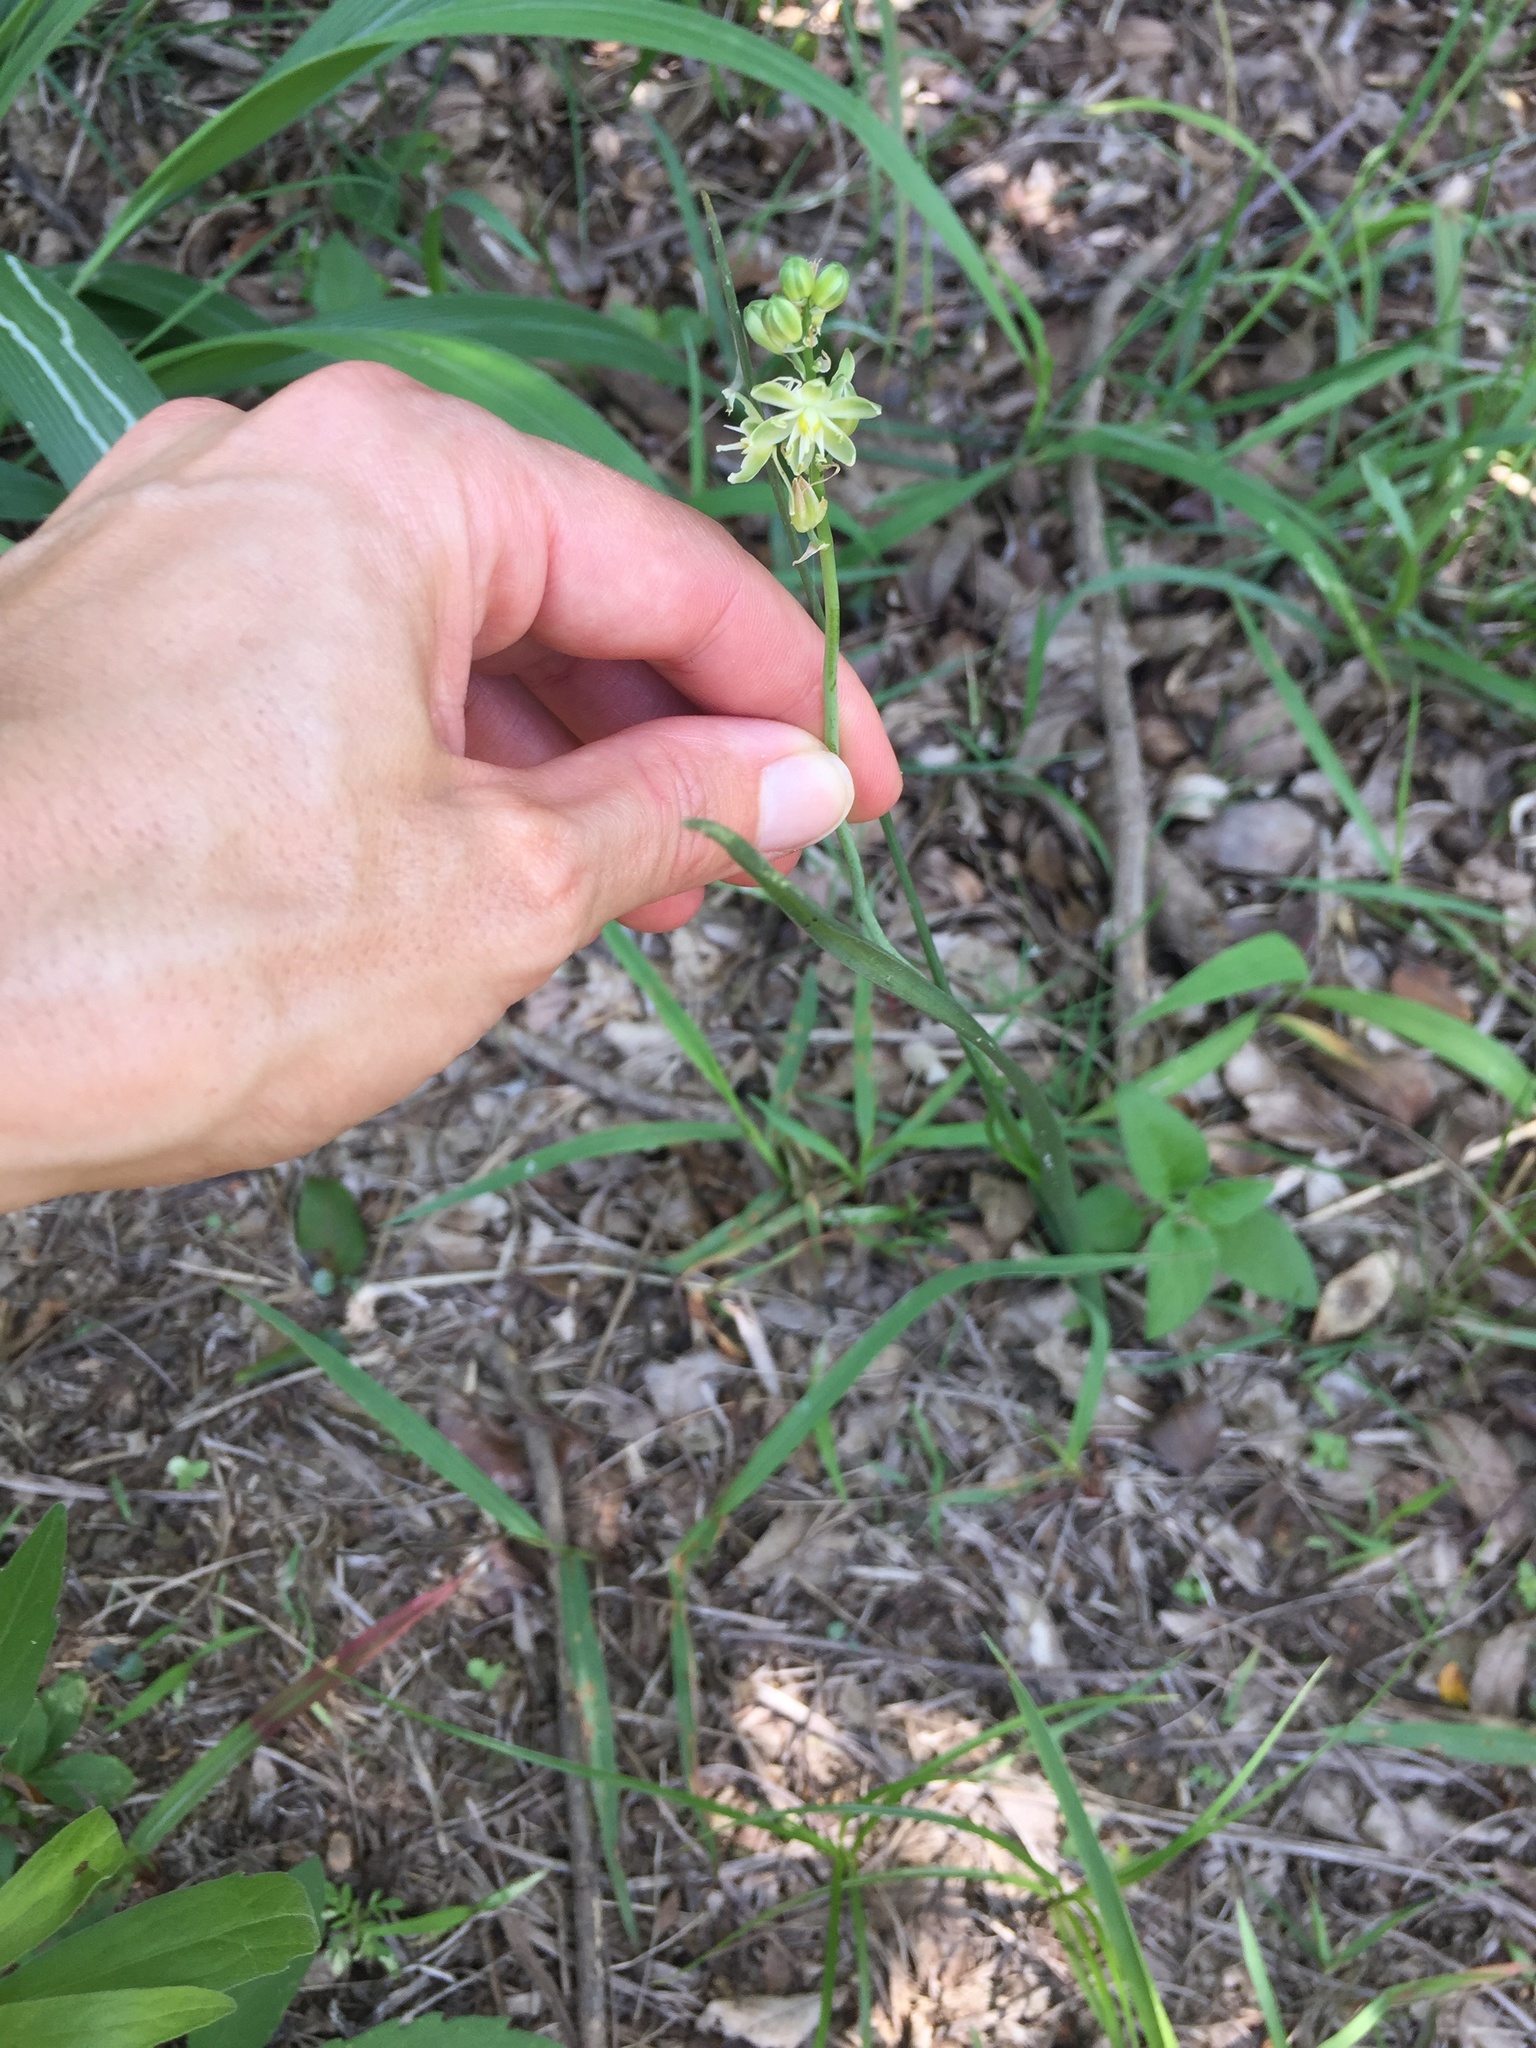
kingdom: Plantae
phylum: Tracheophyta
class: Liliopsida
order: Asparagales
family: Asparagaceae
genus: Albuca
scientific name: Albuca virens
